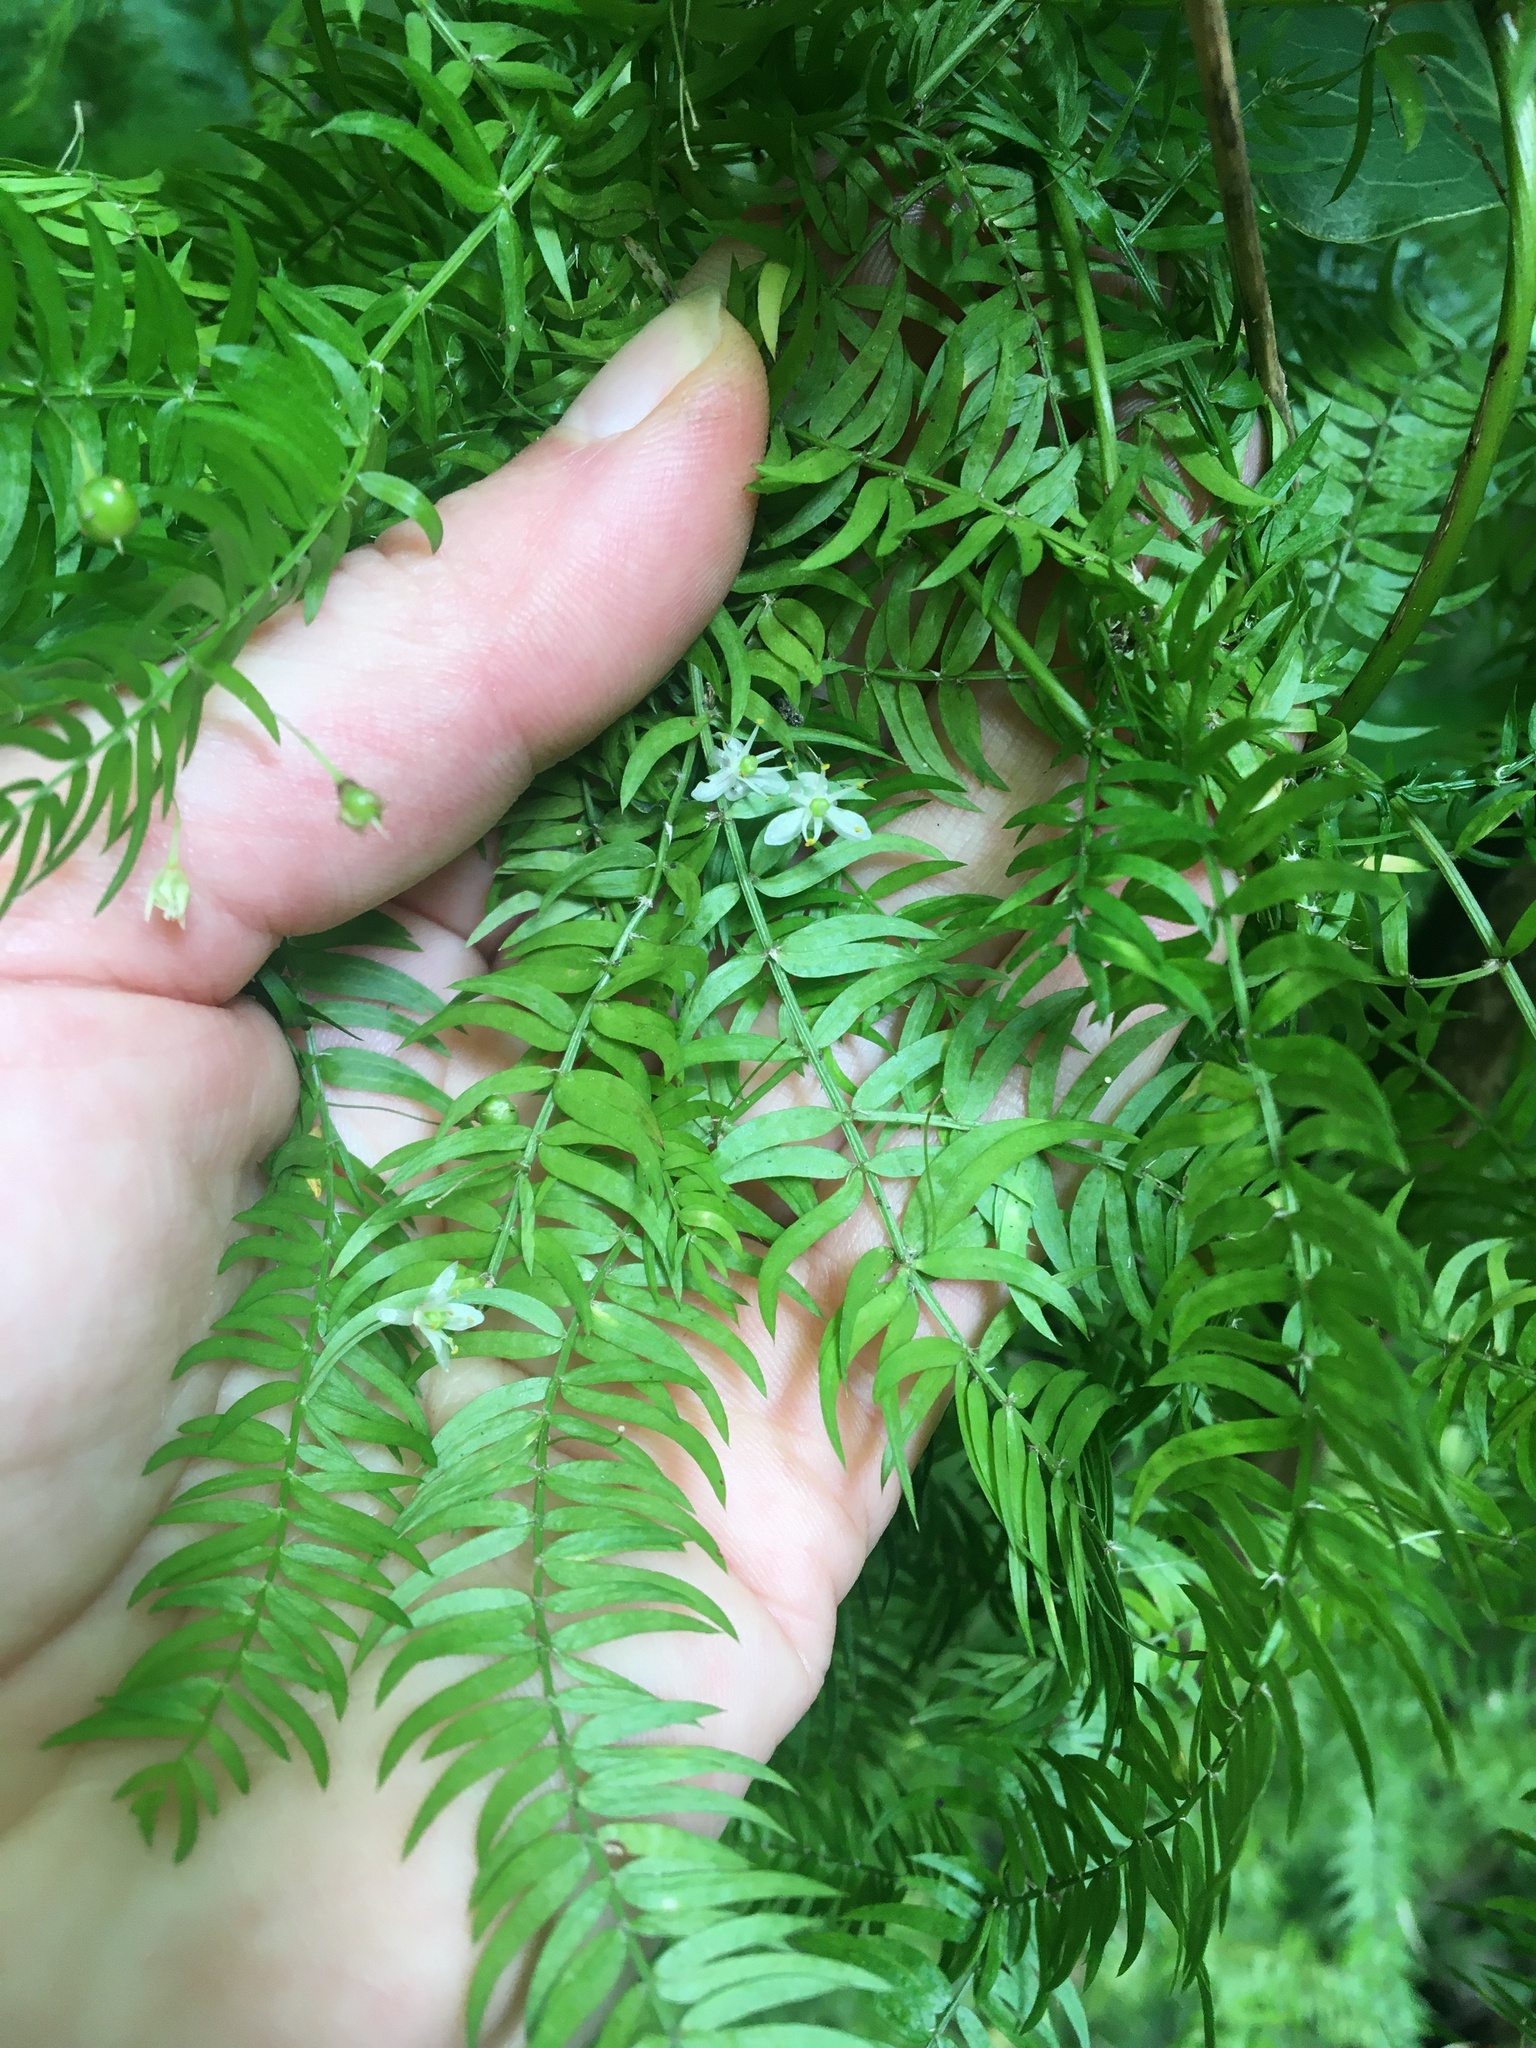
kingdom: Plantae
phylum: Tracheophyta
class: Liliopsida
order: Asparagales
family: Asparagaceae
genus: Asparagus
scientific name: Asparagus scandens
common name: Asparagus-fern
